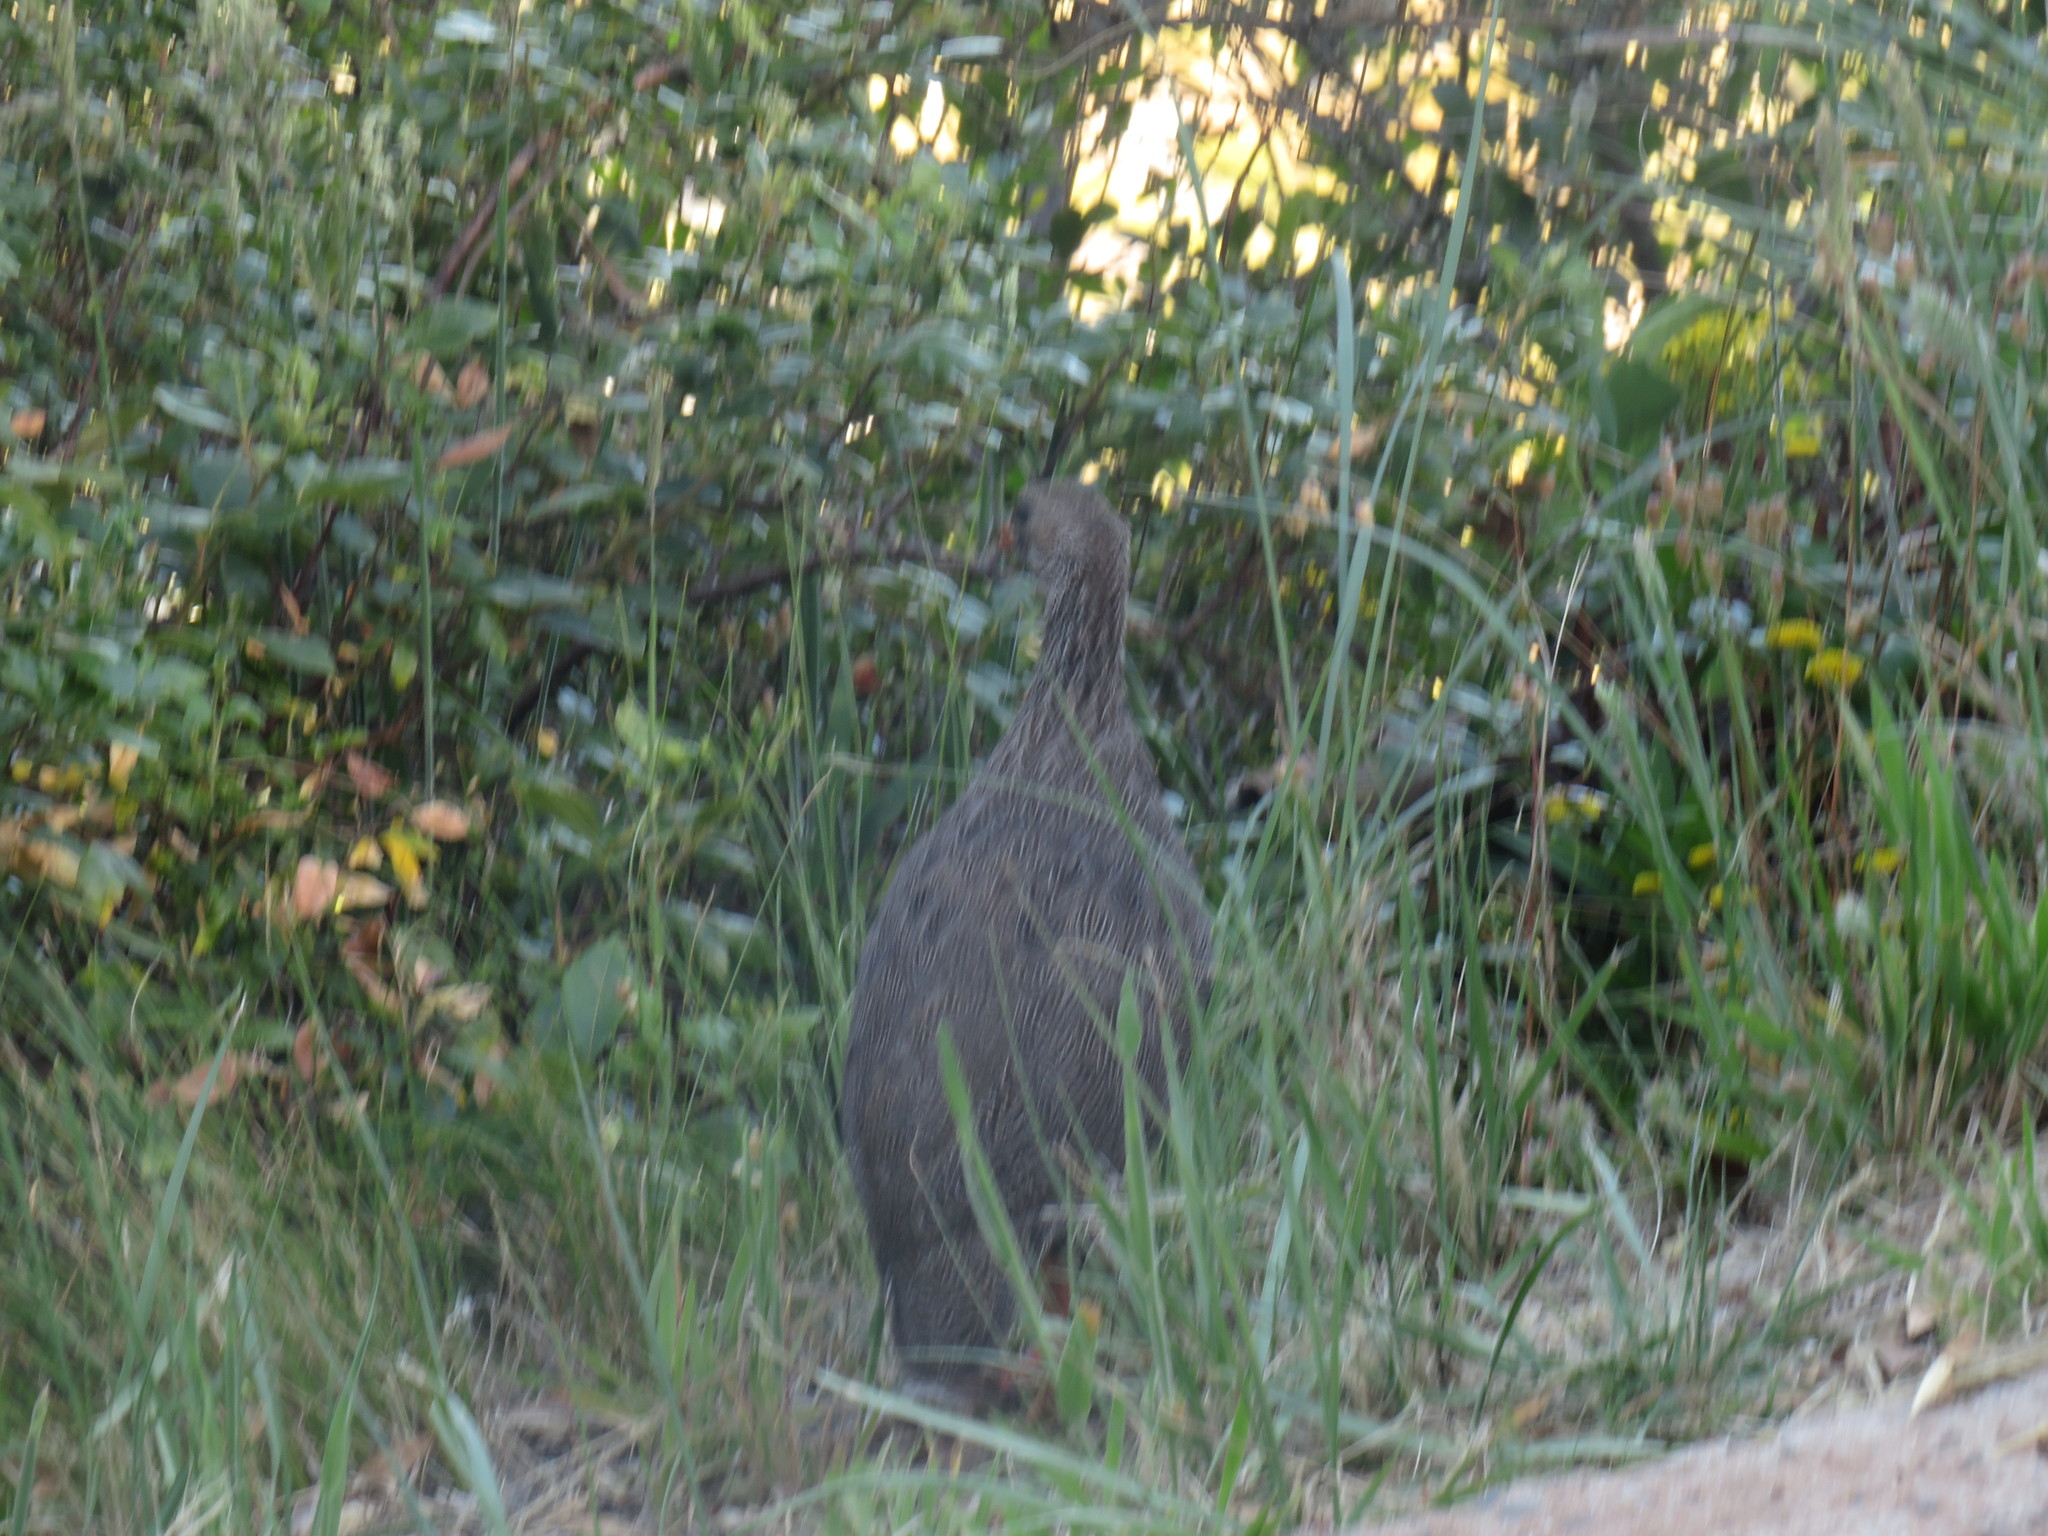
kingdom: Animalia
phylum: Chordata
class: Aves
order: Galliformes
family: Phasianidae
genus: Pternistis
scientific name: Pternistis capensis
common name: Cape spurfowl
